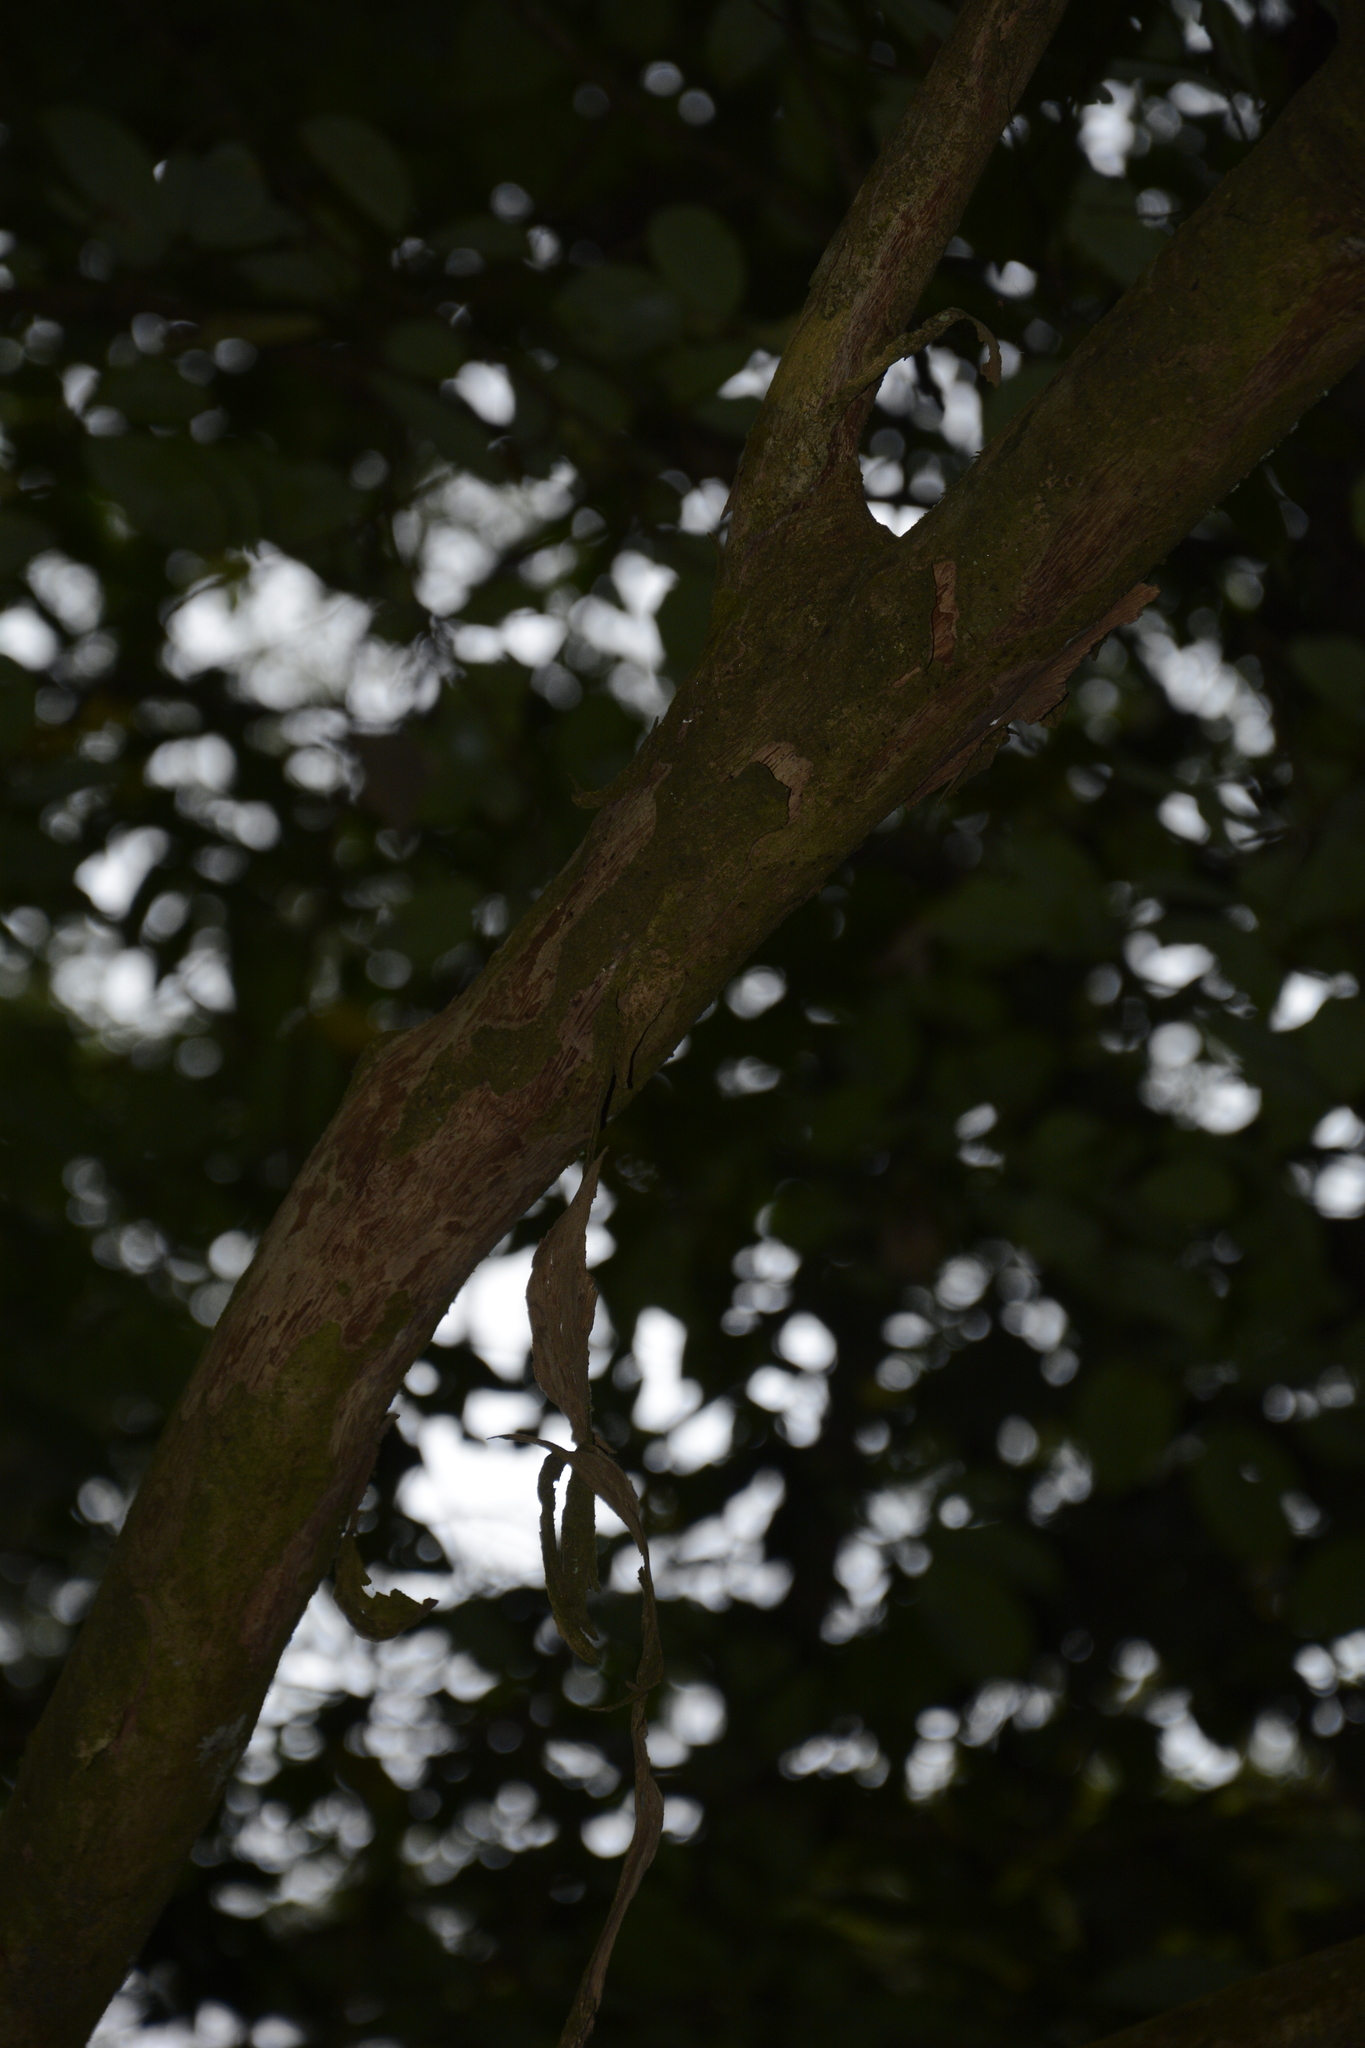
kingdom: Plantae
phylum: Tracheophyta
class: Magnoliopsida
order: Malpighiales
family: Phyllanthaceae
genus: Margaritaria
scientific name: Margaritaria indica
